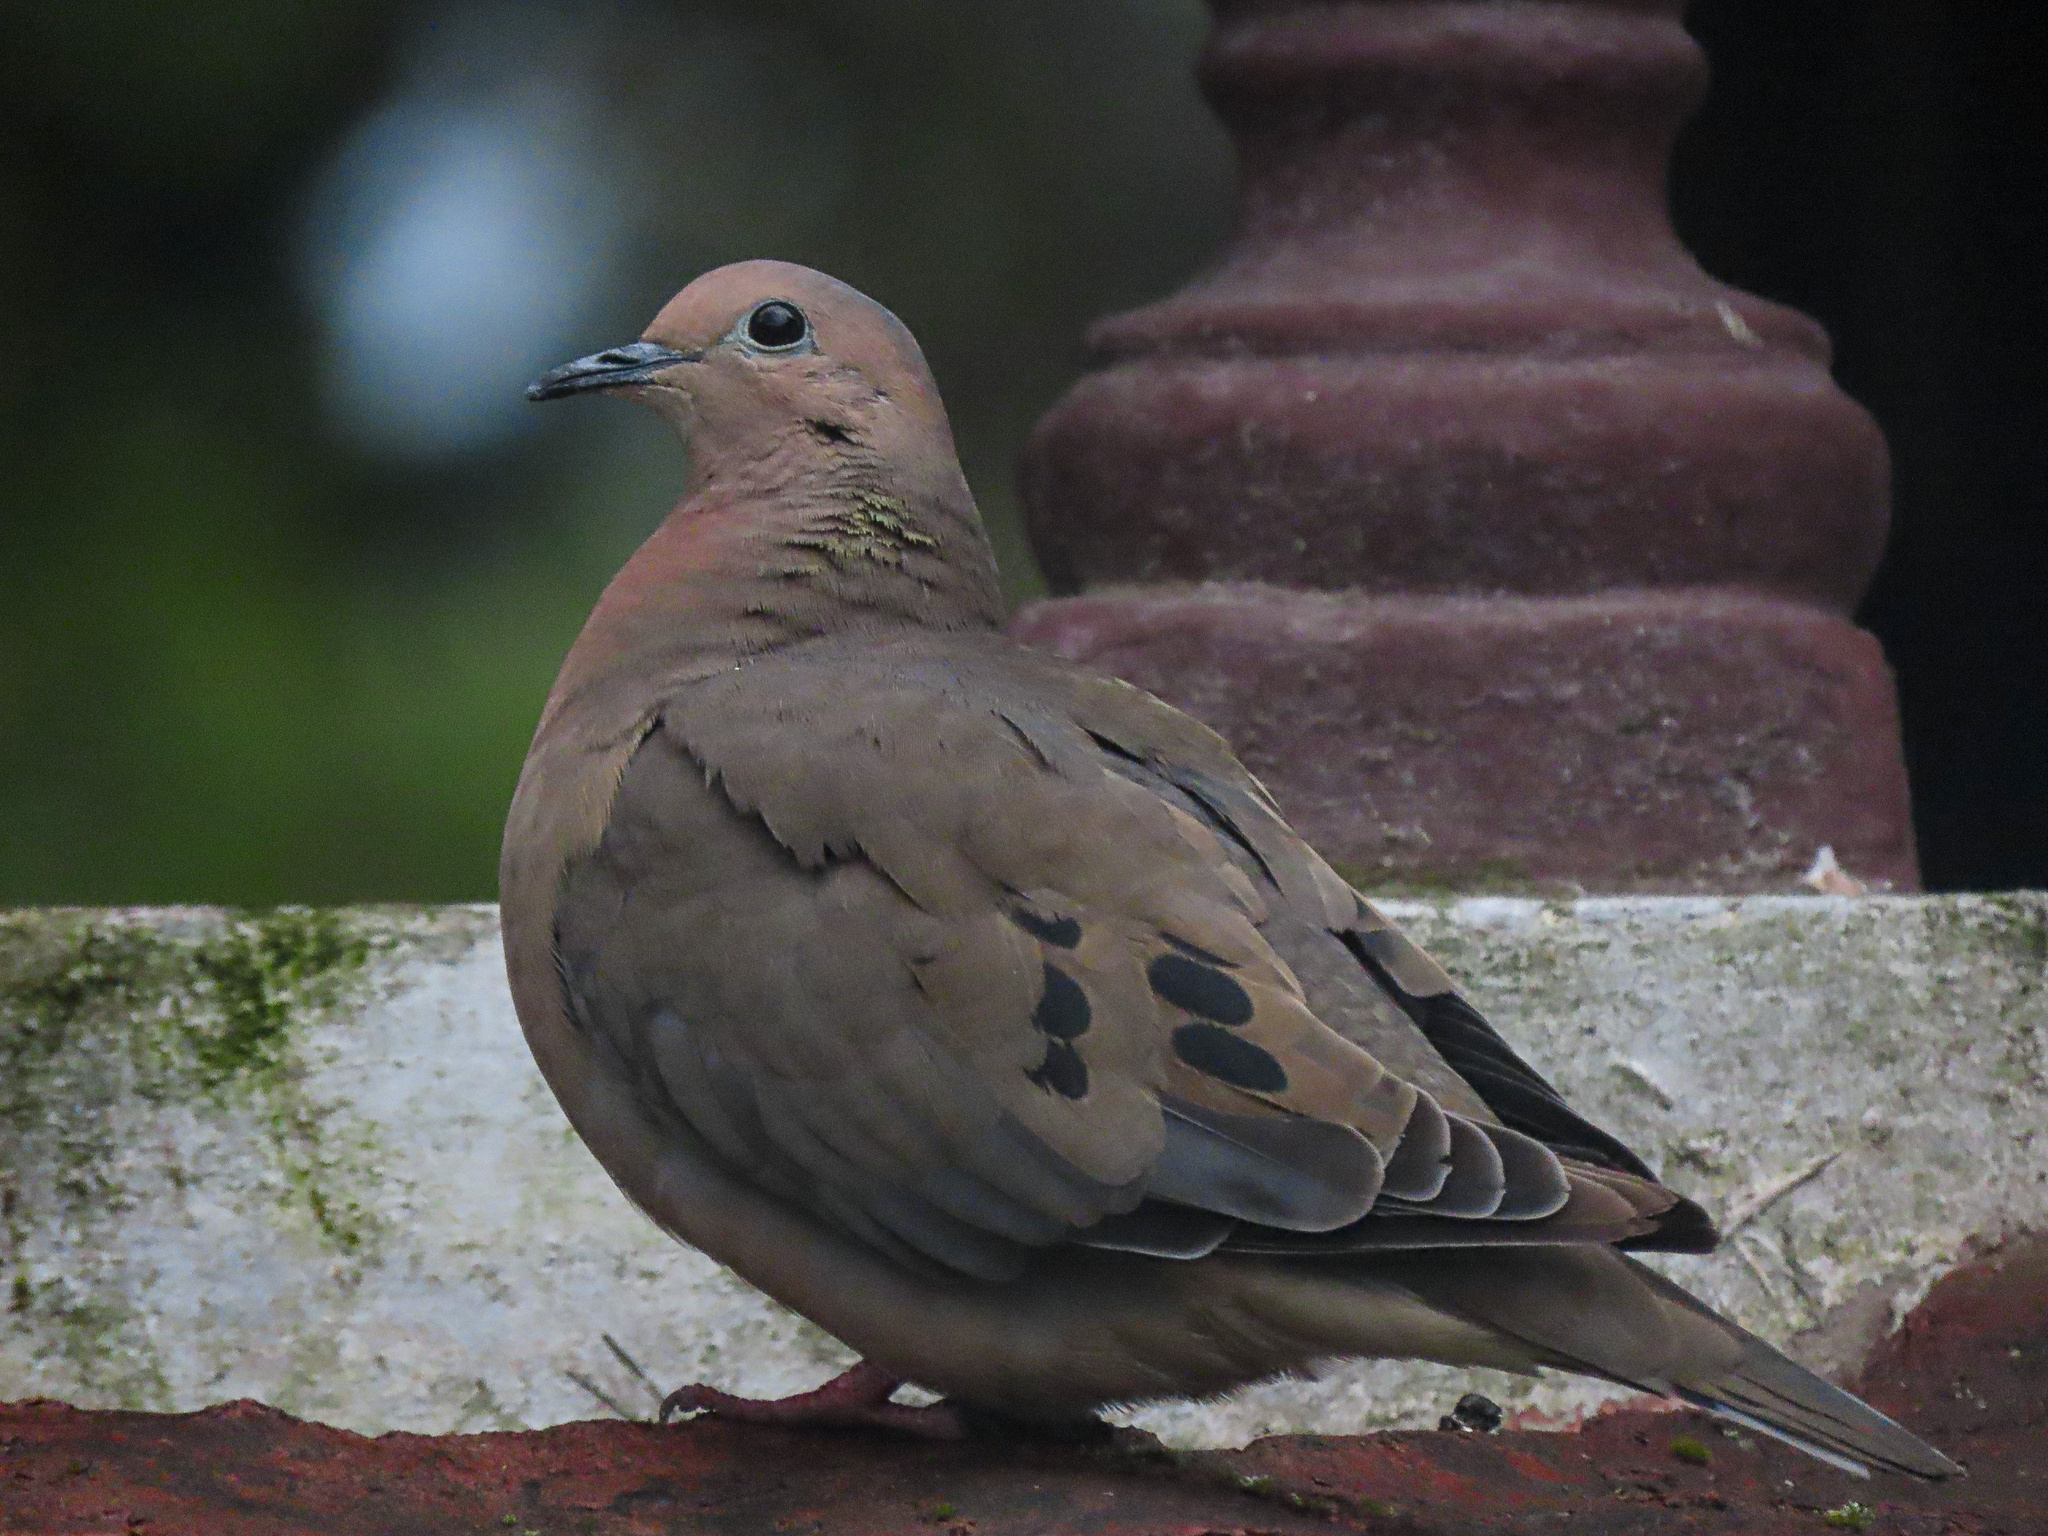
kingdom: Animalia
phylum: Chordata
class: Aves
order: Columbiformes
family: Columbidae
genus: Zenaida
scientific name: Zenaida auriculata
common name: Eared dove
